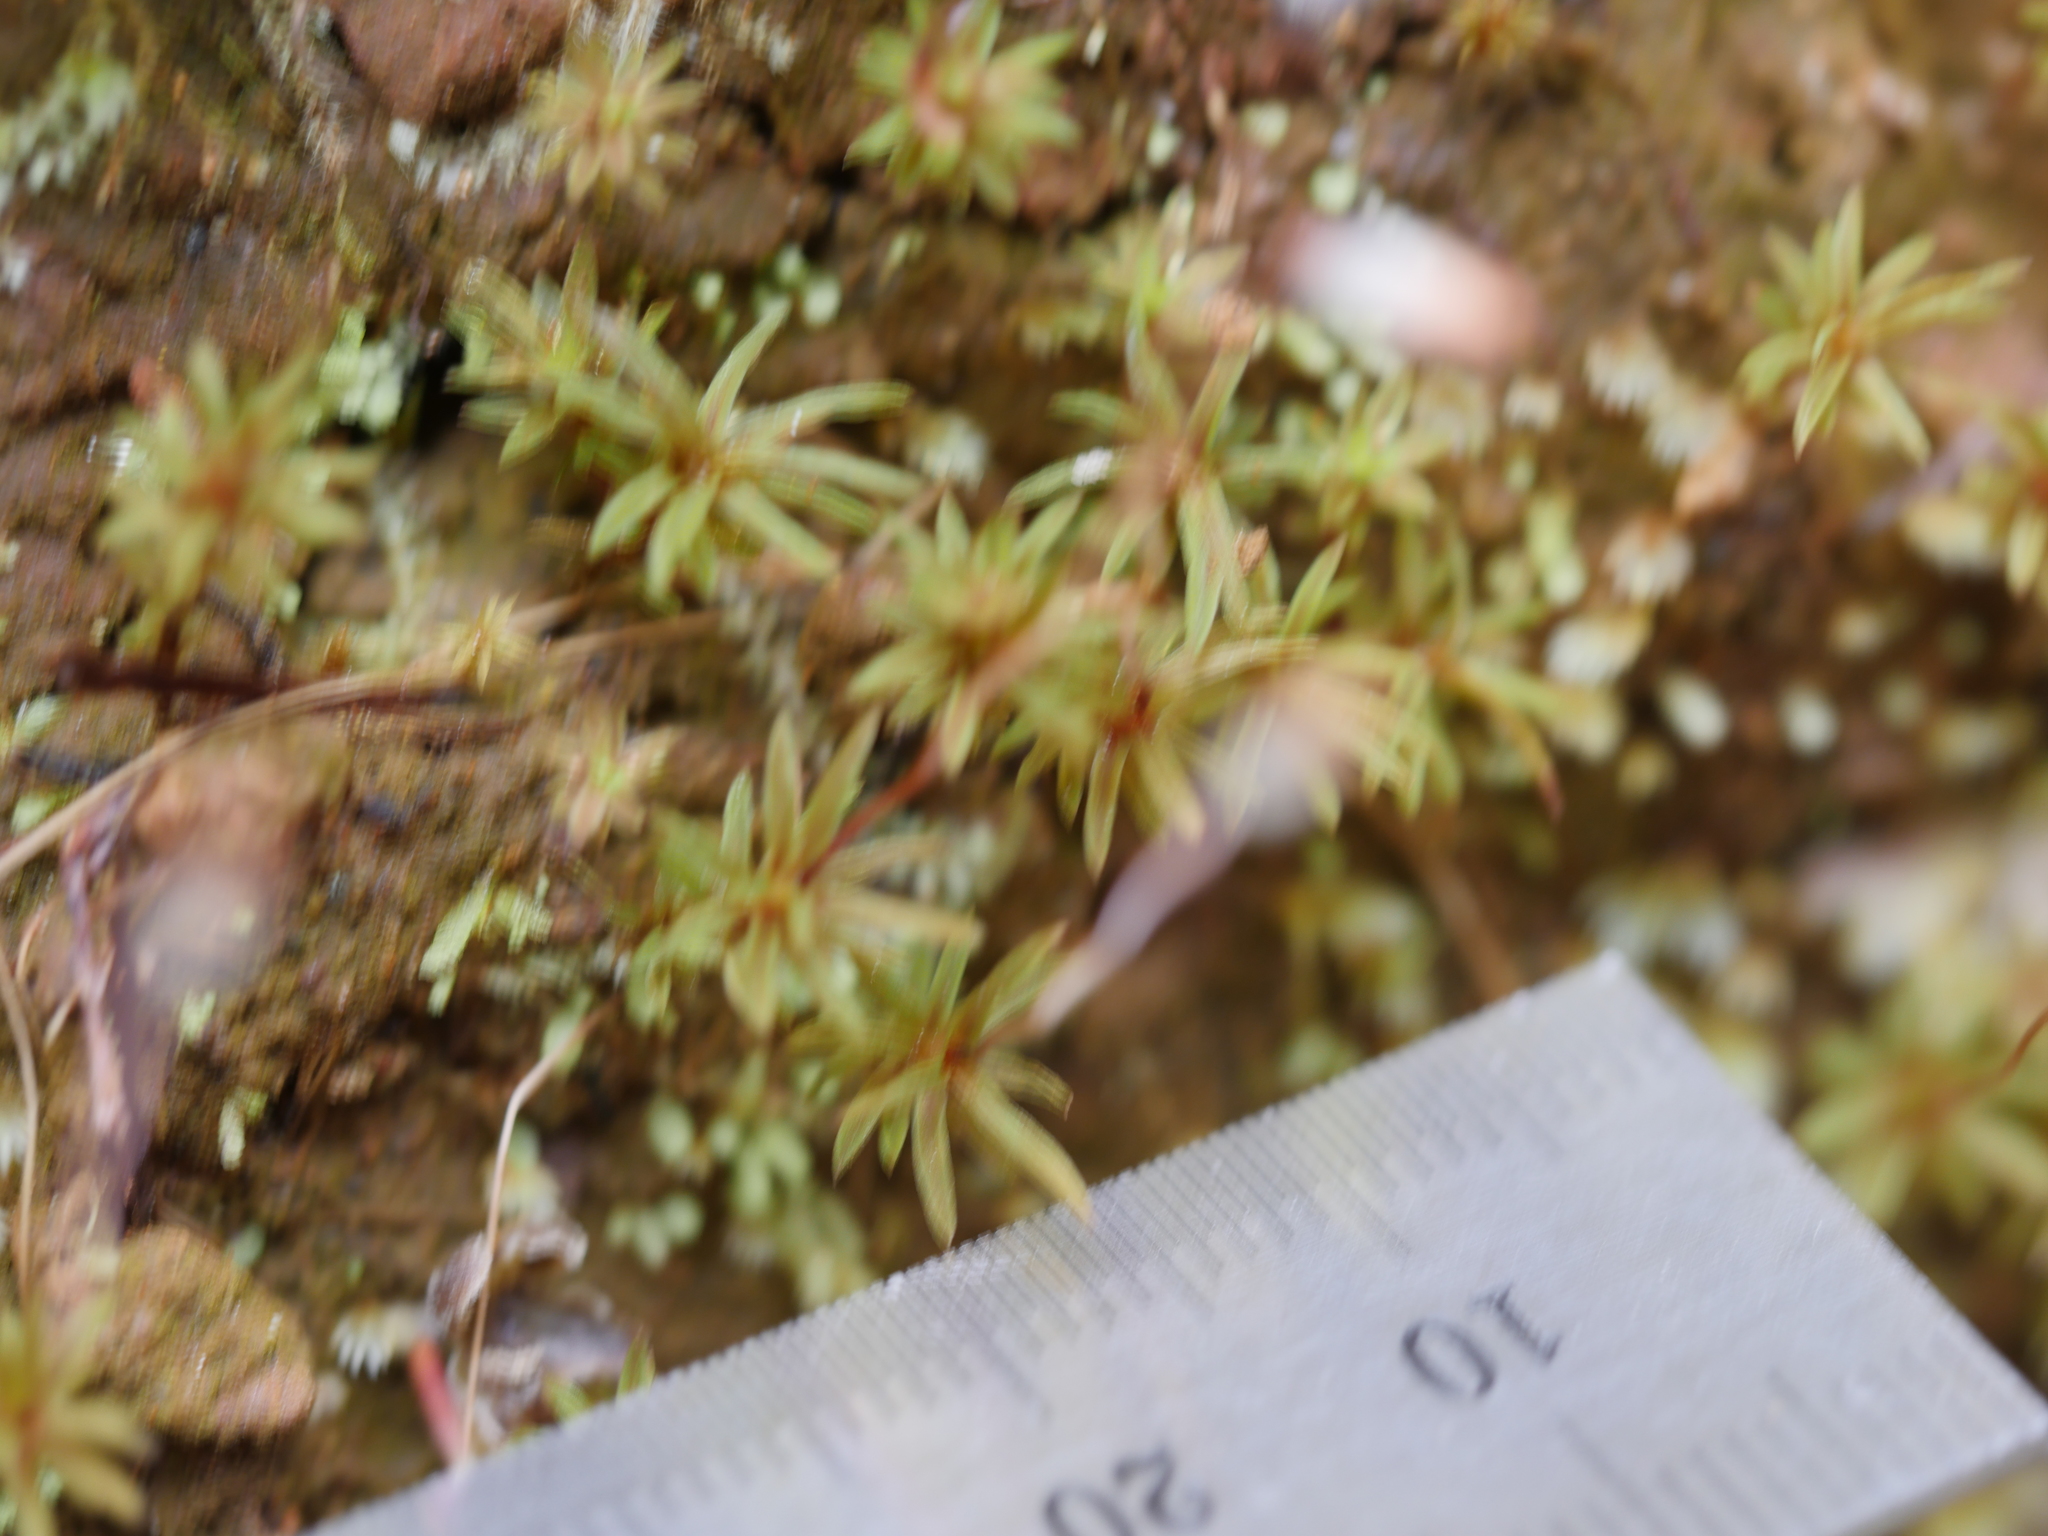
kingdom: Plantae
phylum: Bryophyta
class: Polytrichopsida
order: Polytrichales
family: Polytrichaceae
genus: Pogonatum
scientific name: Pogonatum subulatum
